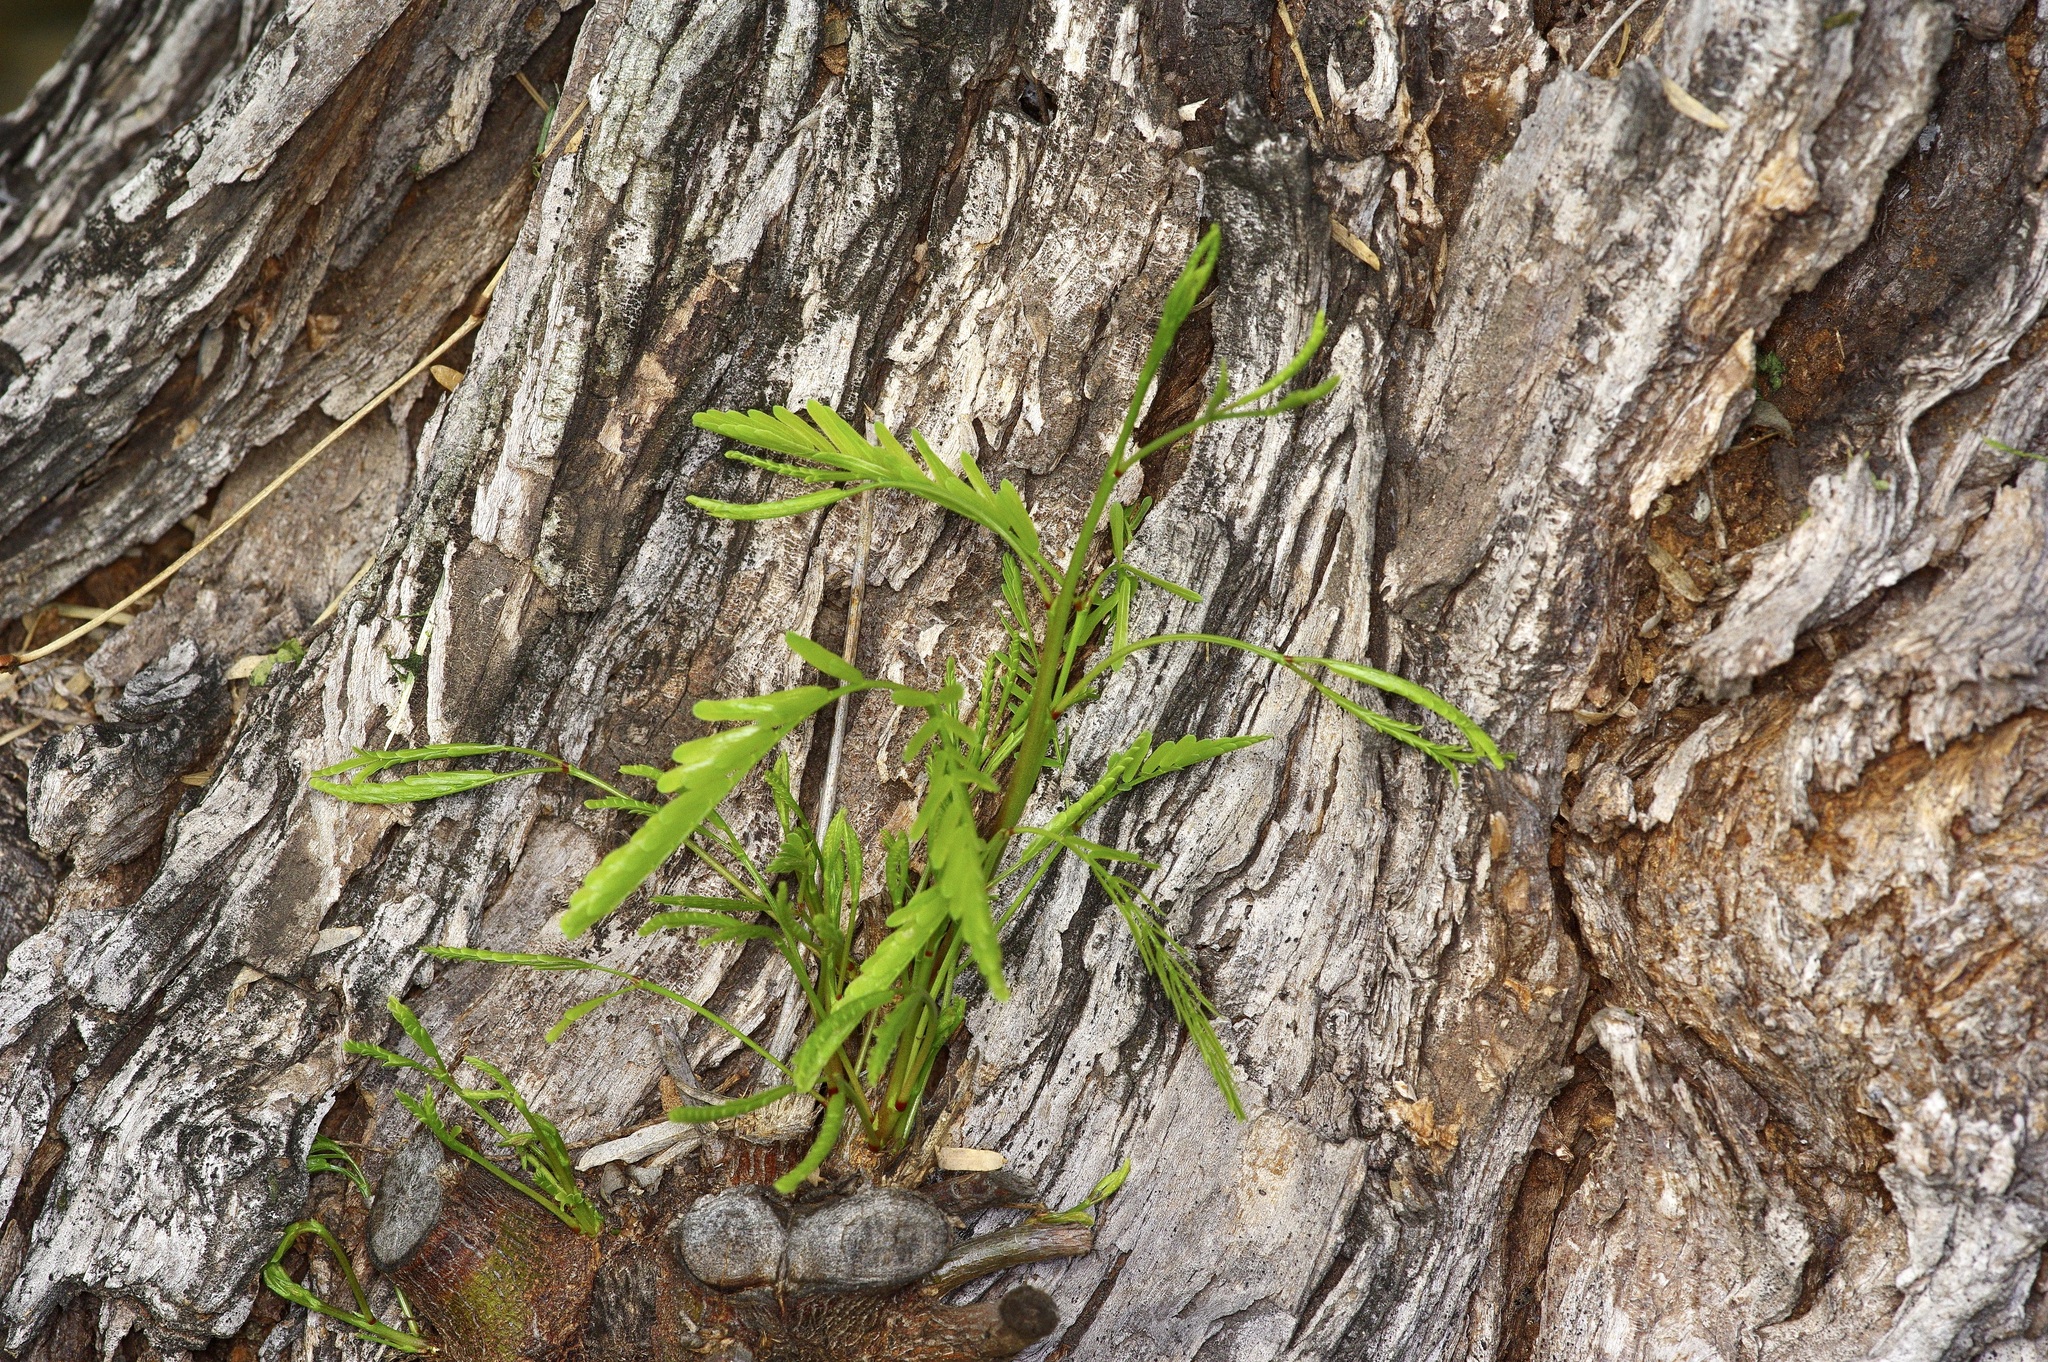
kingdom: Plantae
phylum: Tracheophyta
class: Magnoliopsida
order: Fabales
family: Fabaceae
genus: Prosopis
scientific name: Prosopis glandulosa
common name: Honey mesquite
